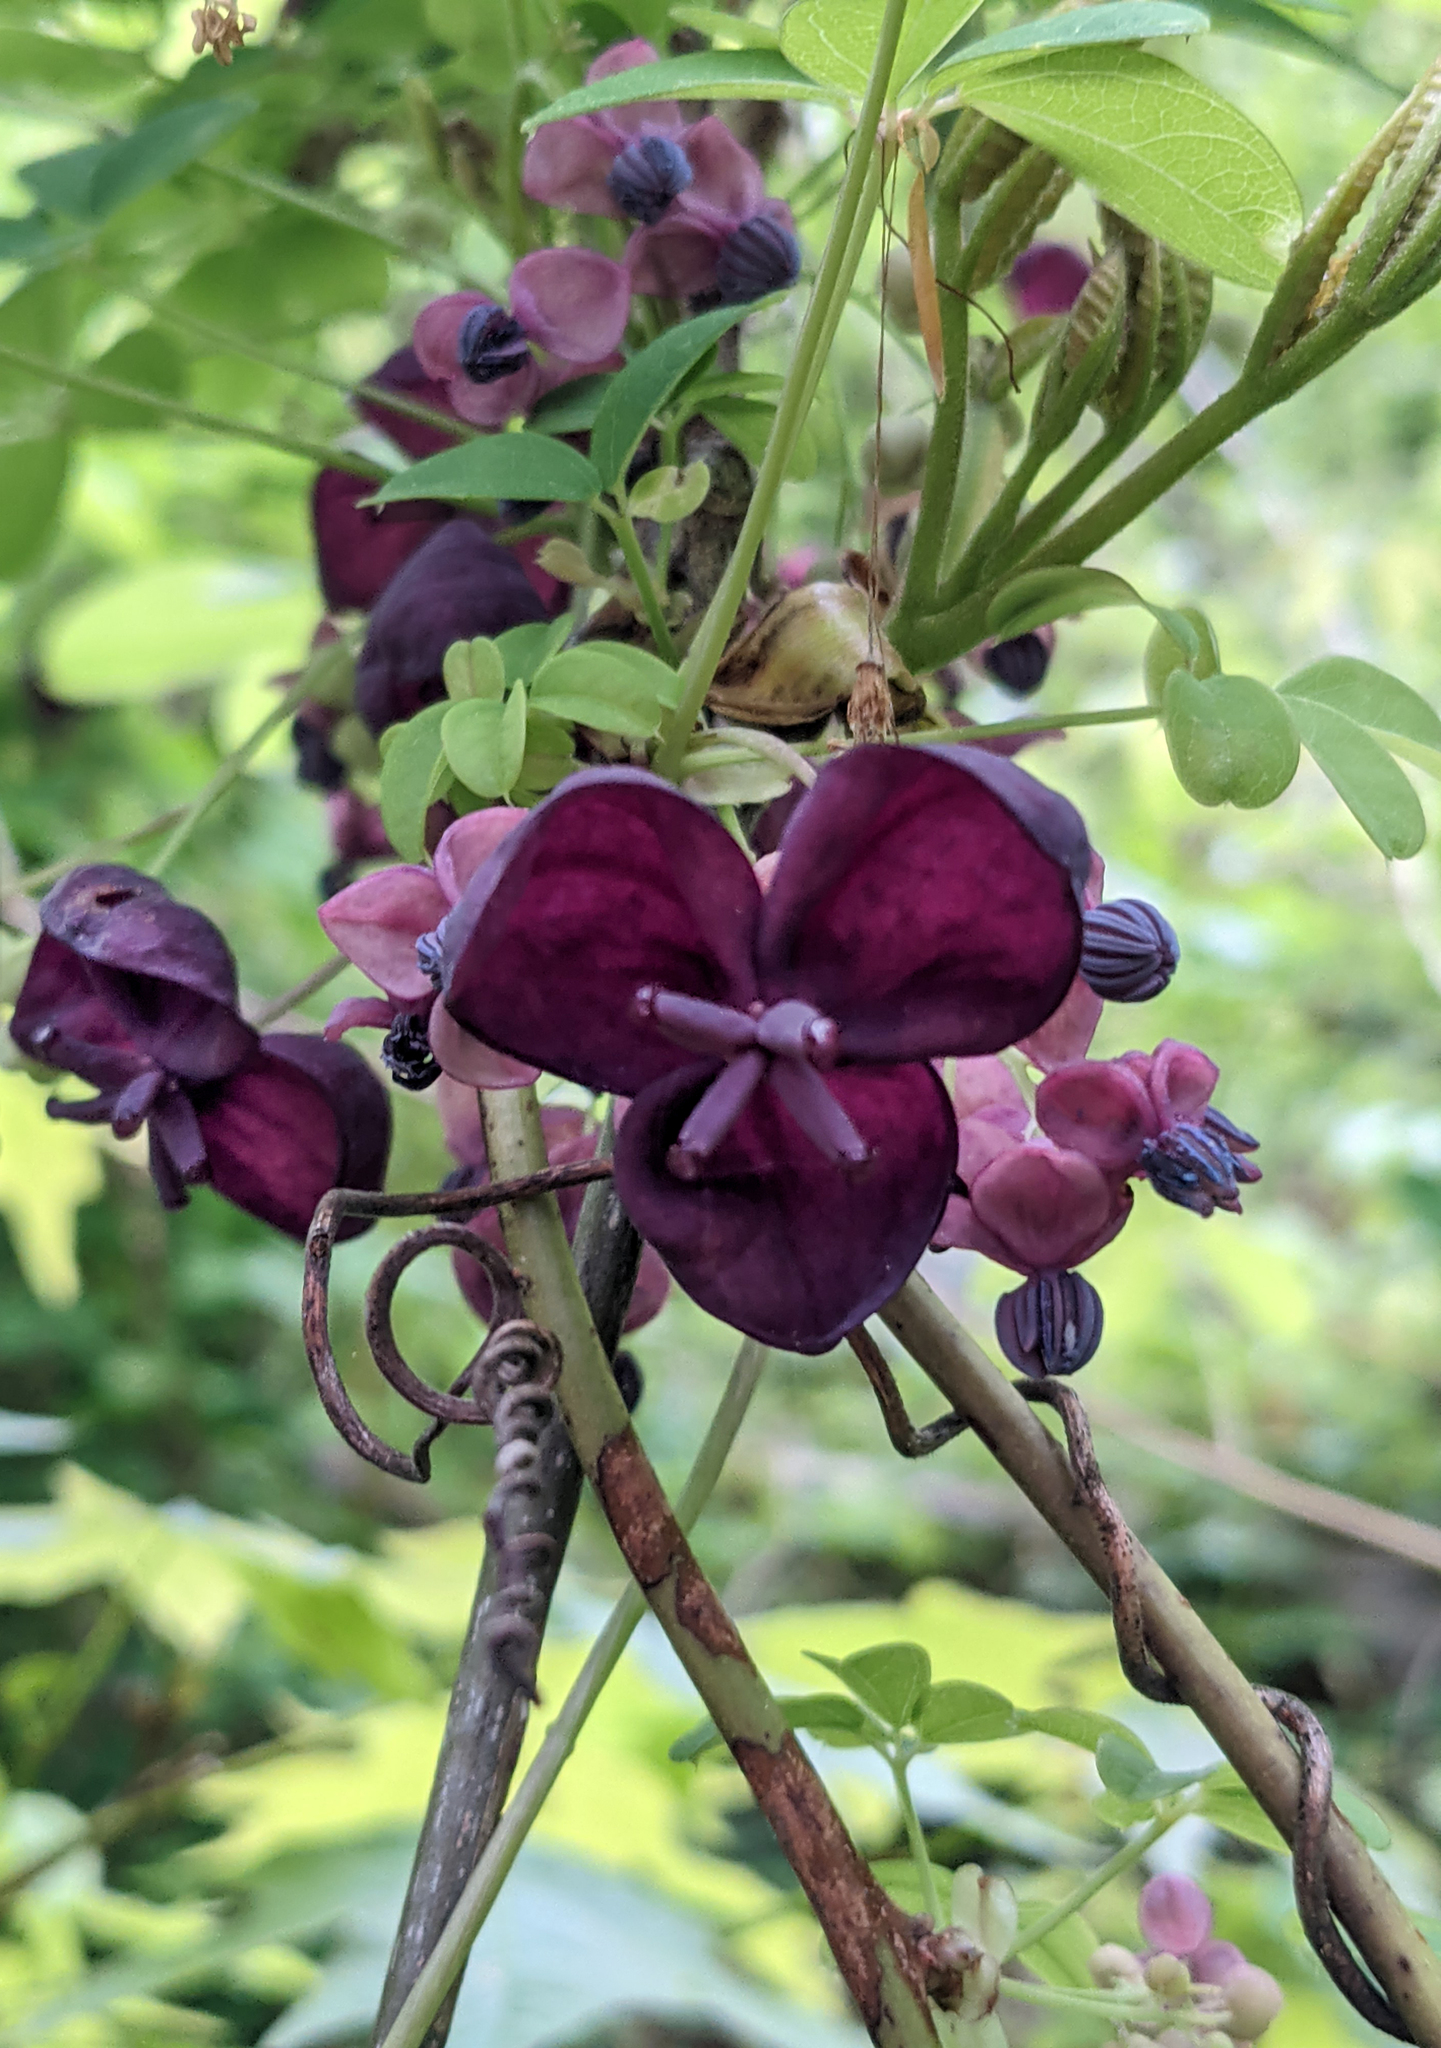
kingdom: Plantae
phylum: Tracheophyta
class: Magnoliopsida
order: Ranunculales
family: Lardizabalaceae
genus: Akebia
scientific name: Akebia quinata
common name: Five-leaf akebia
